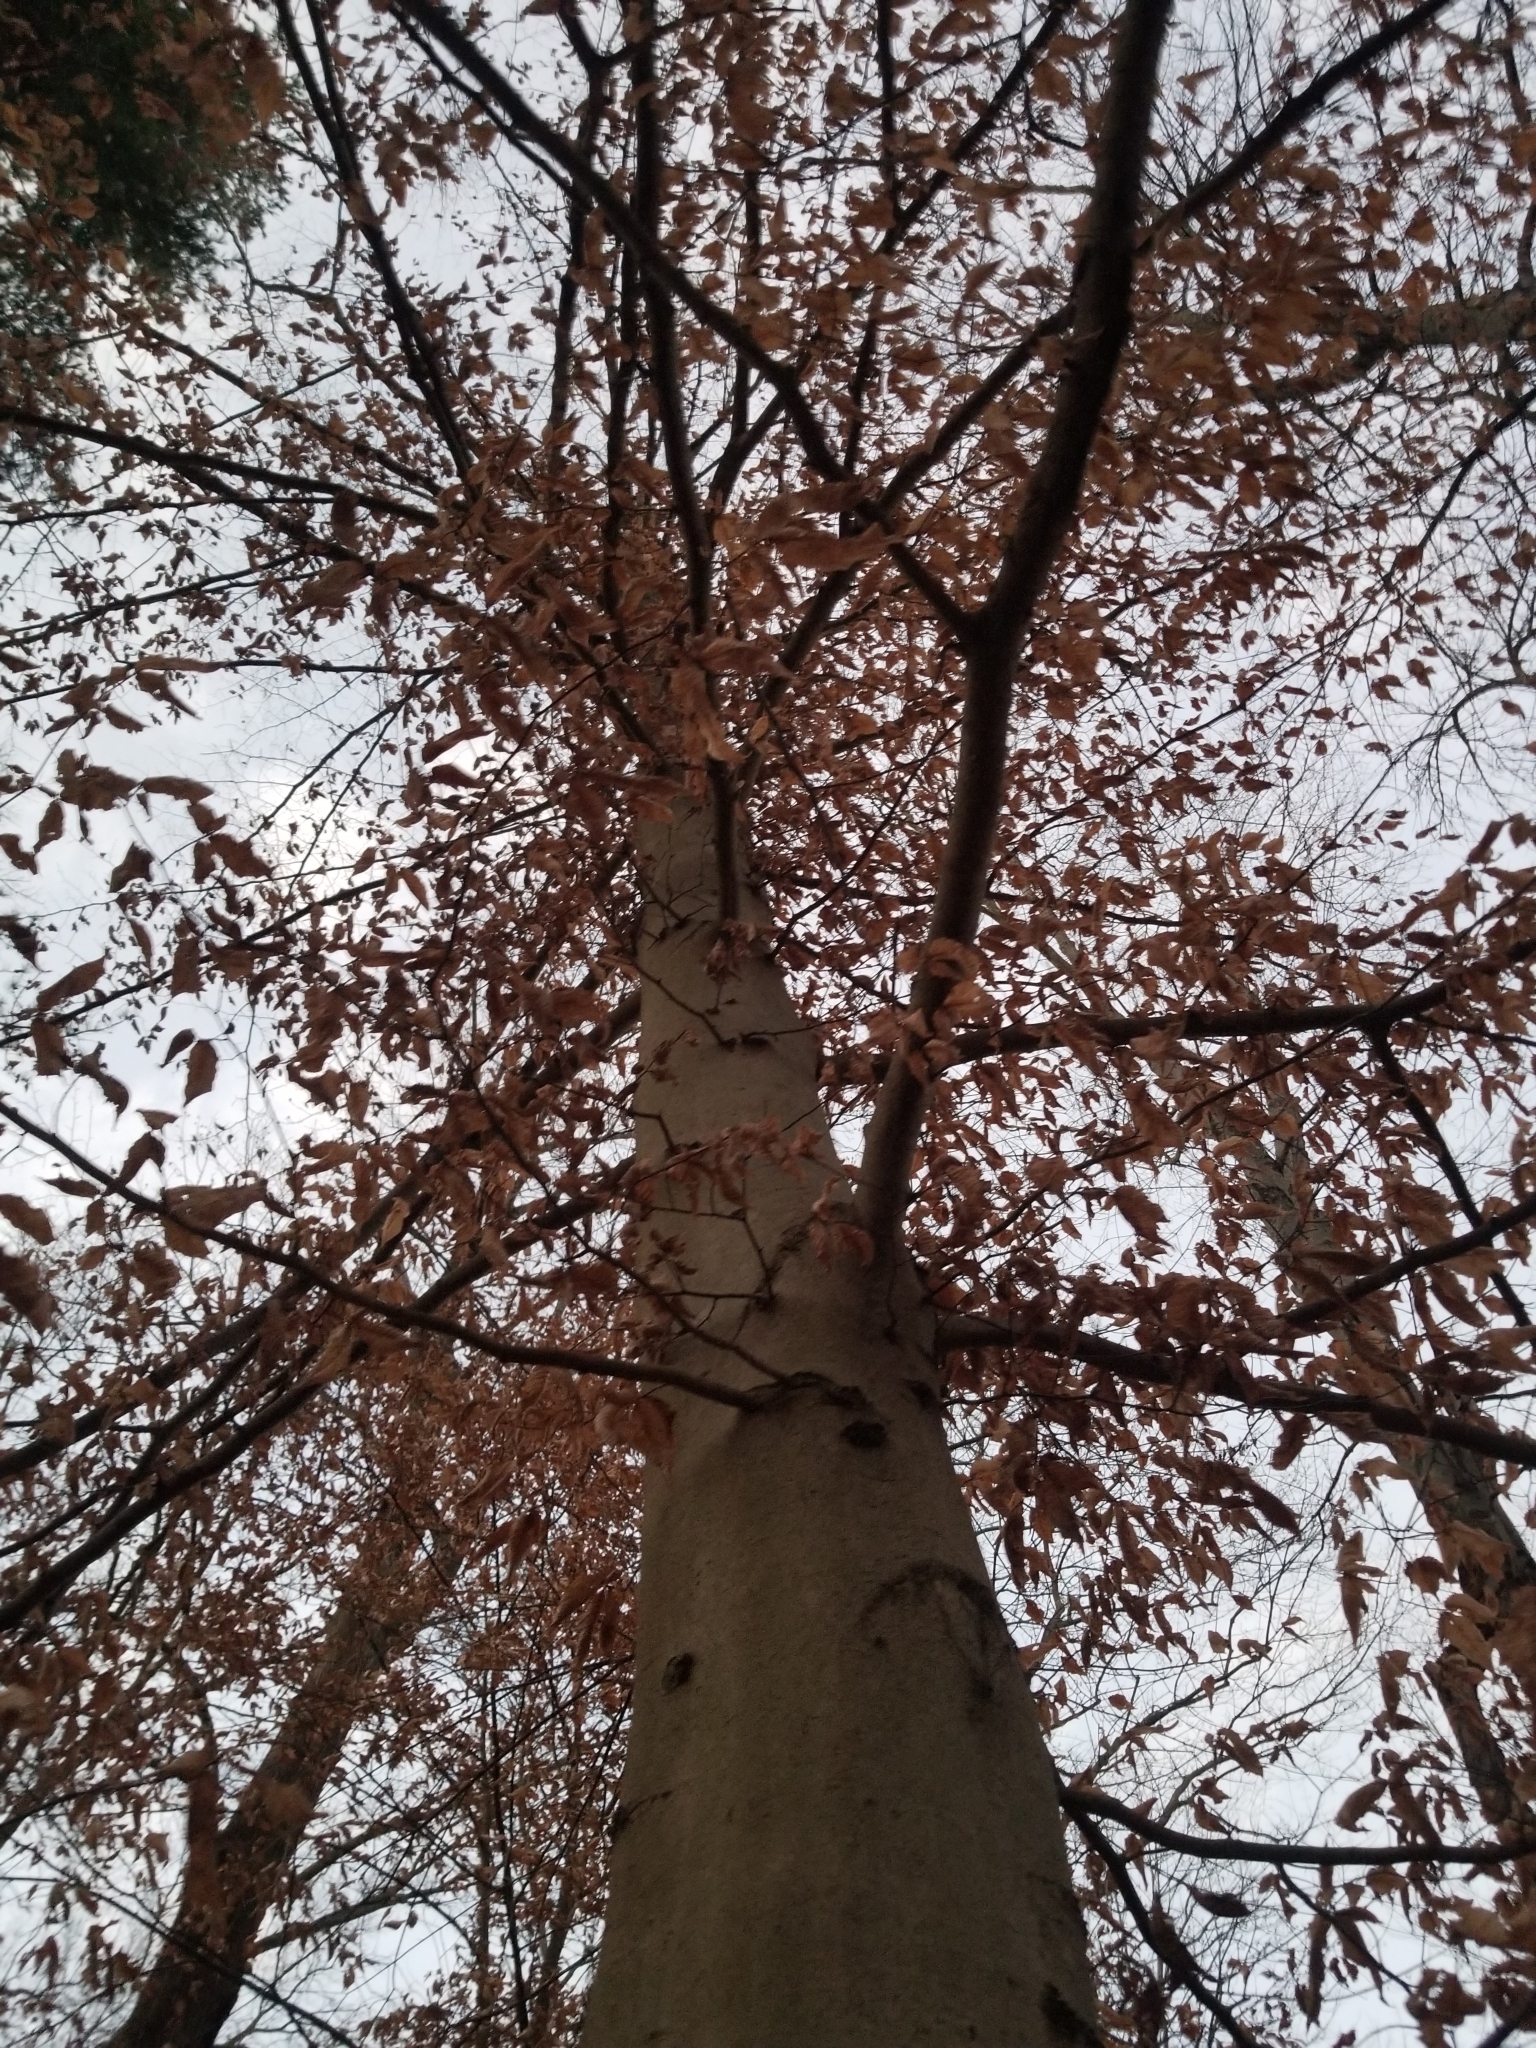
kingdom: Plantae
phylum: Tracheophyta
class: Magnoliopsida
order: Fagales
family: Fagaceae
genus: Fagus
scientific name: Fagus grandifolia
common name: American beech
